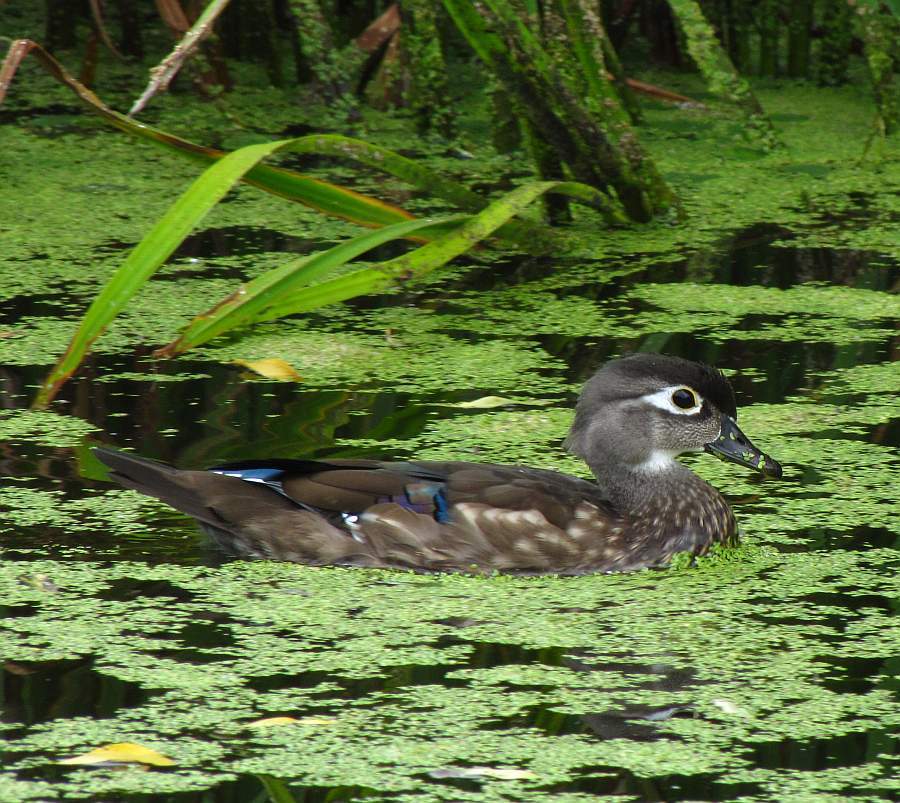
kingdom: Animalia
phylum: Chordata
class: Aves
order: Anseriformes
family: Anatidae
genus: Aix
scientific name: Aix sponsa
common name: Wood duck
